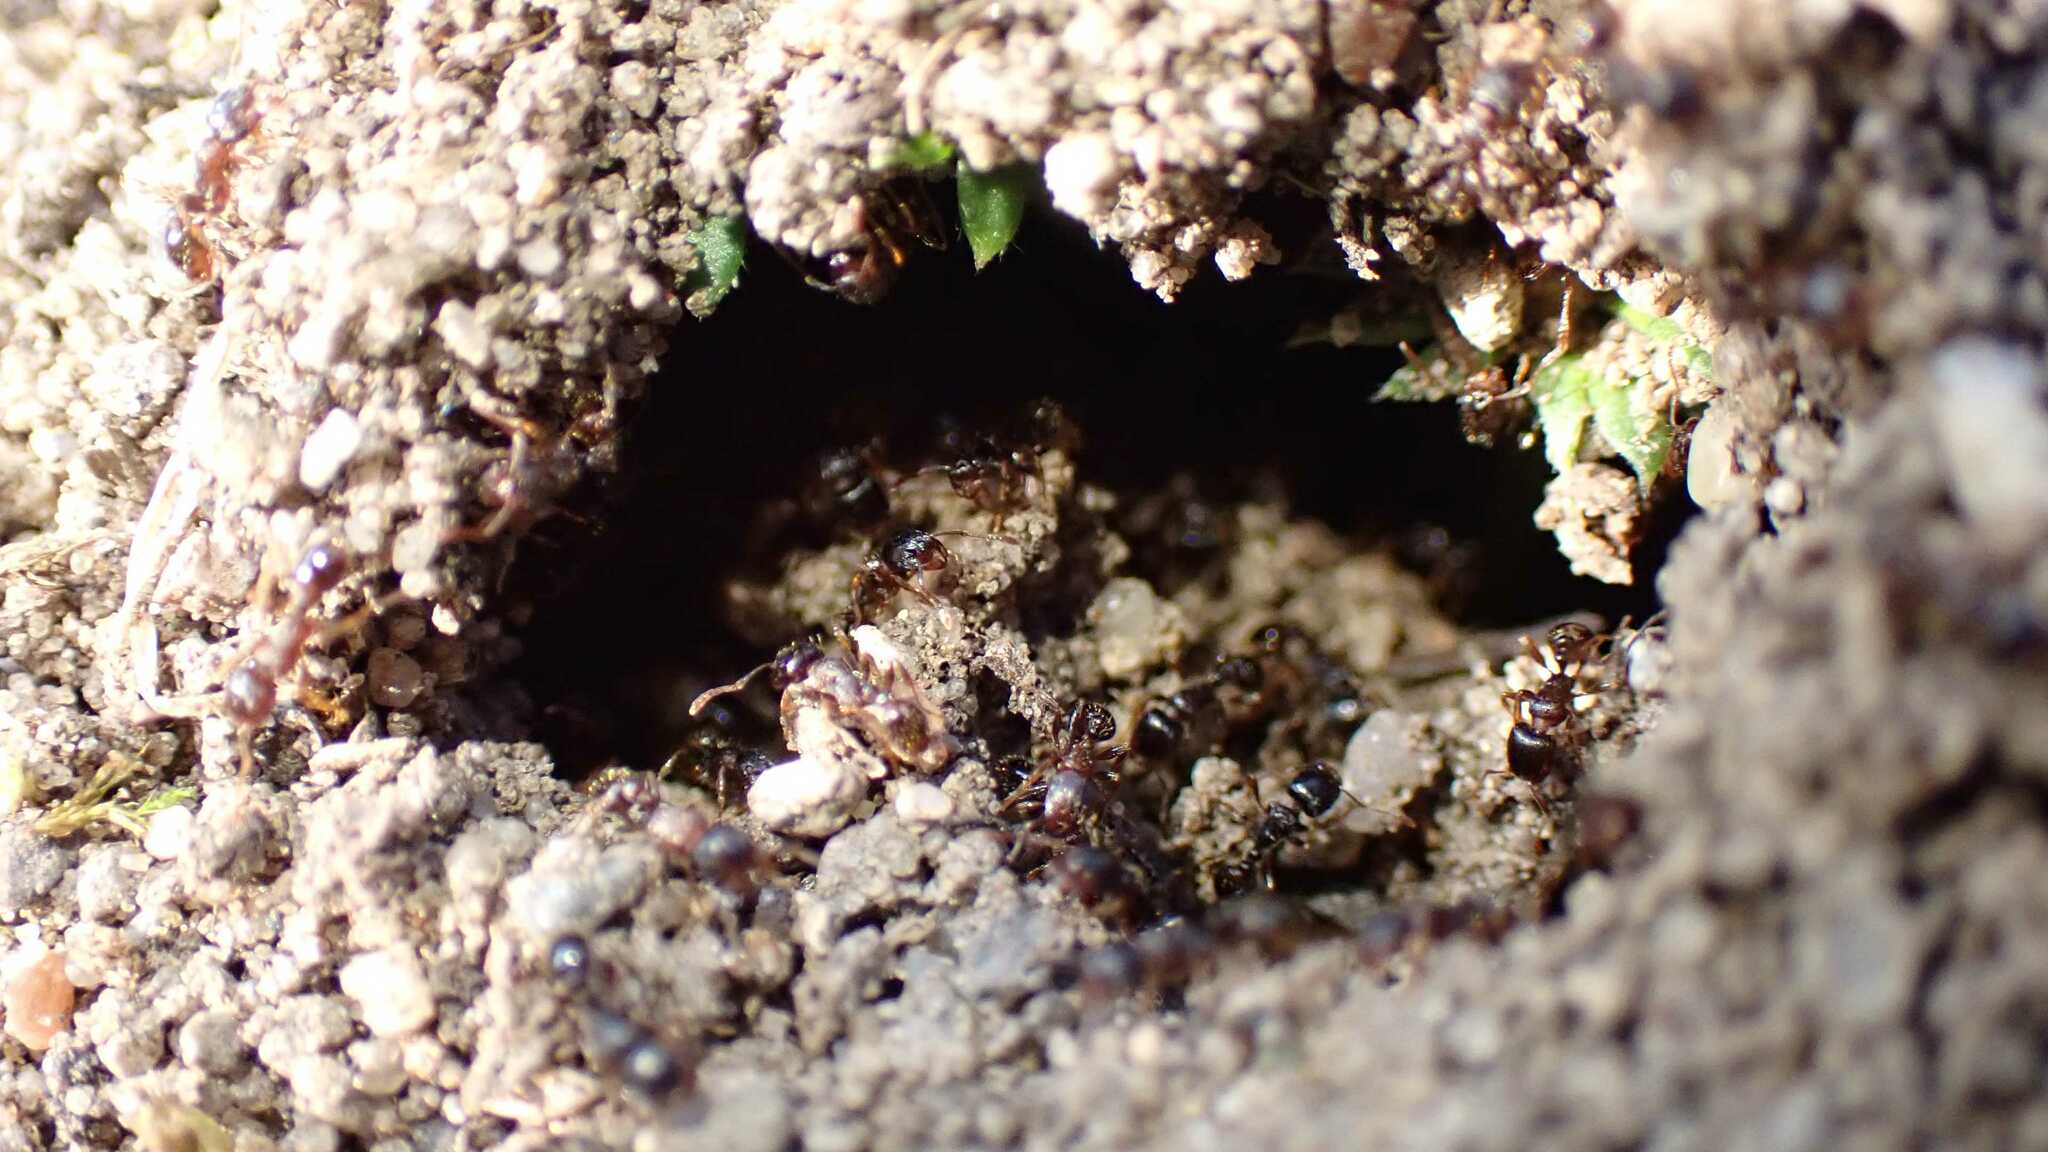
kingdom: Animalia
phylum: Arthropoda
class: Insecta
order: Hymenoptera
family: Formicidae
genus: Tetramorium
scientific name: Tetramorium
